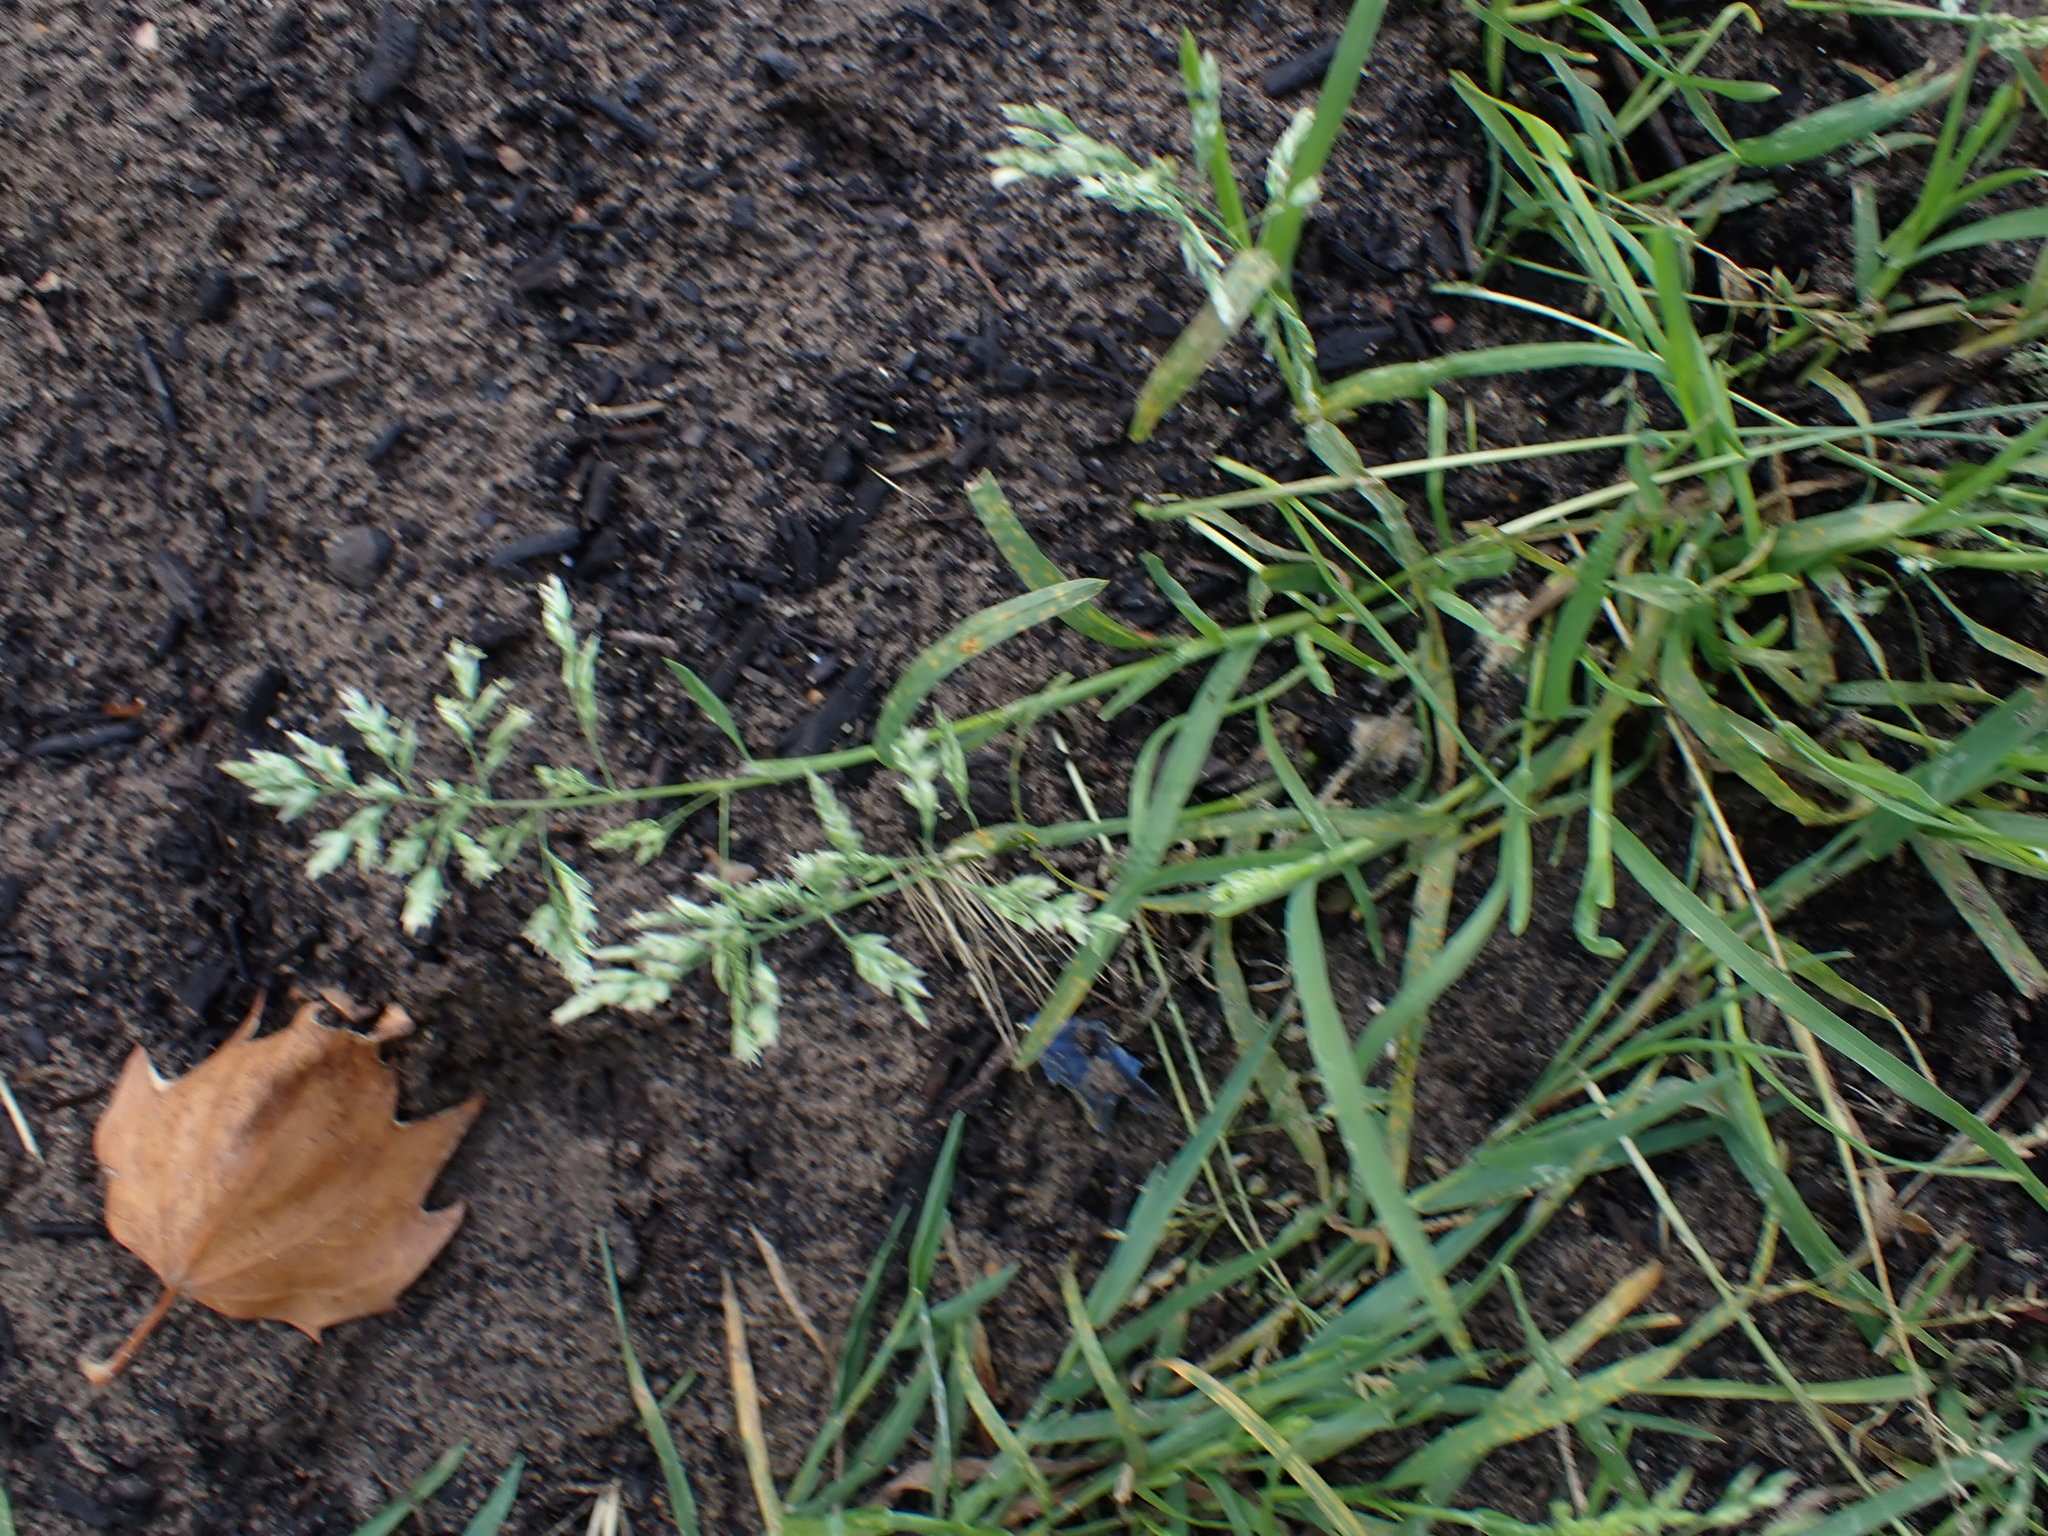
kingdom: Plantae
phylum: Tracheophyta
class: Liliopsida
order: Poales
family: Poaceae
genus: Poa
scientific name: Poa annua
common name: Annual bluegrass
